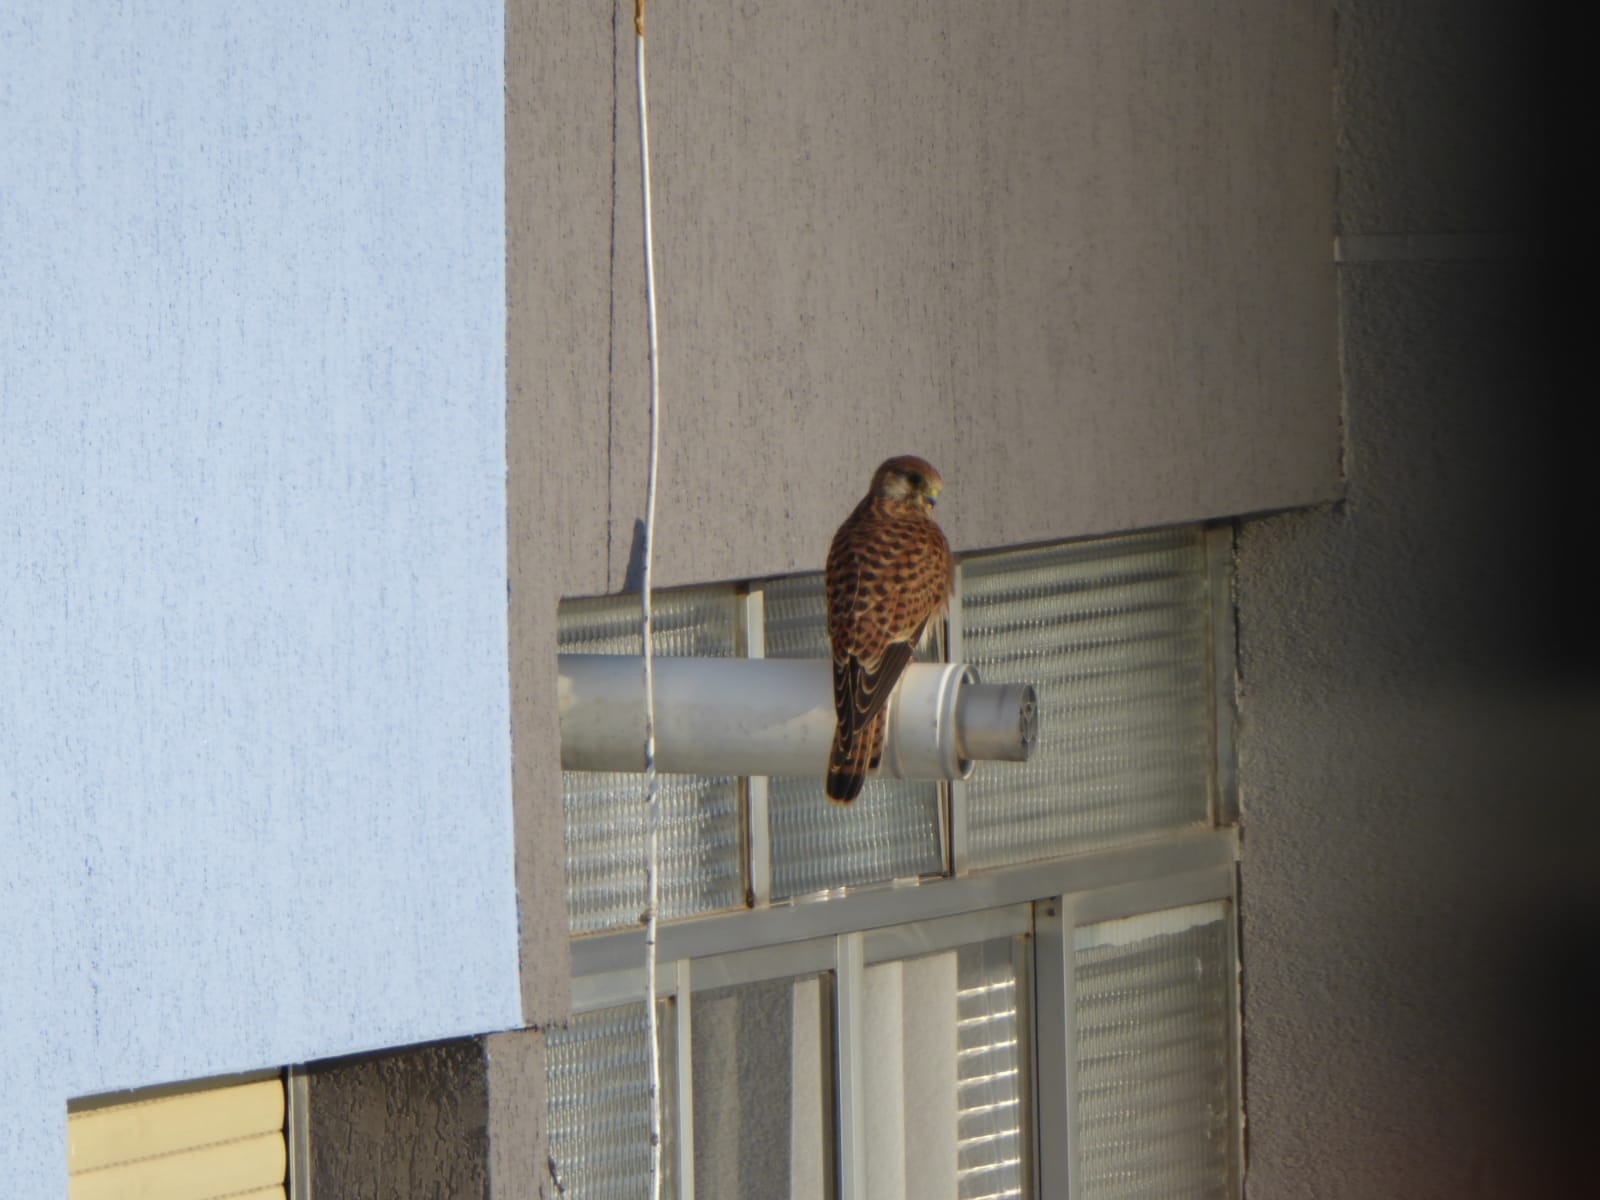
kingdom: Animalia
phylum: Chordata
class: Aves
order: Falconiformes
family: Falconidae
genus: Falco
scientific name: Falco tinnunculus
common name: Common kestrel
